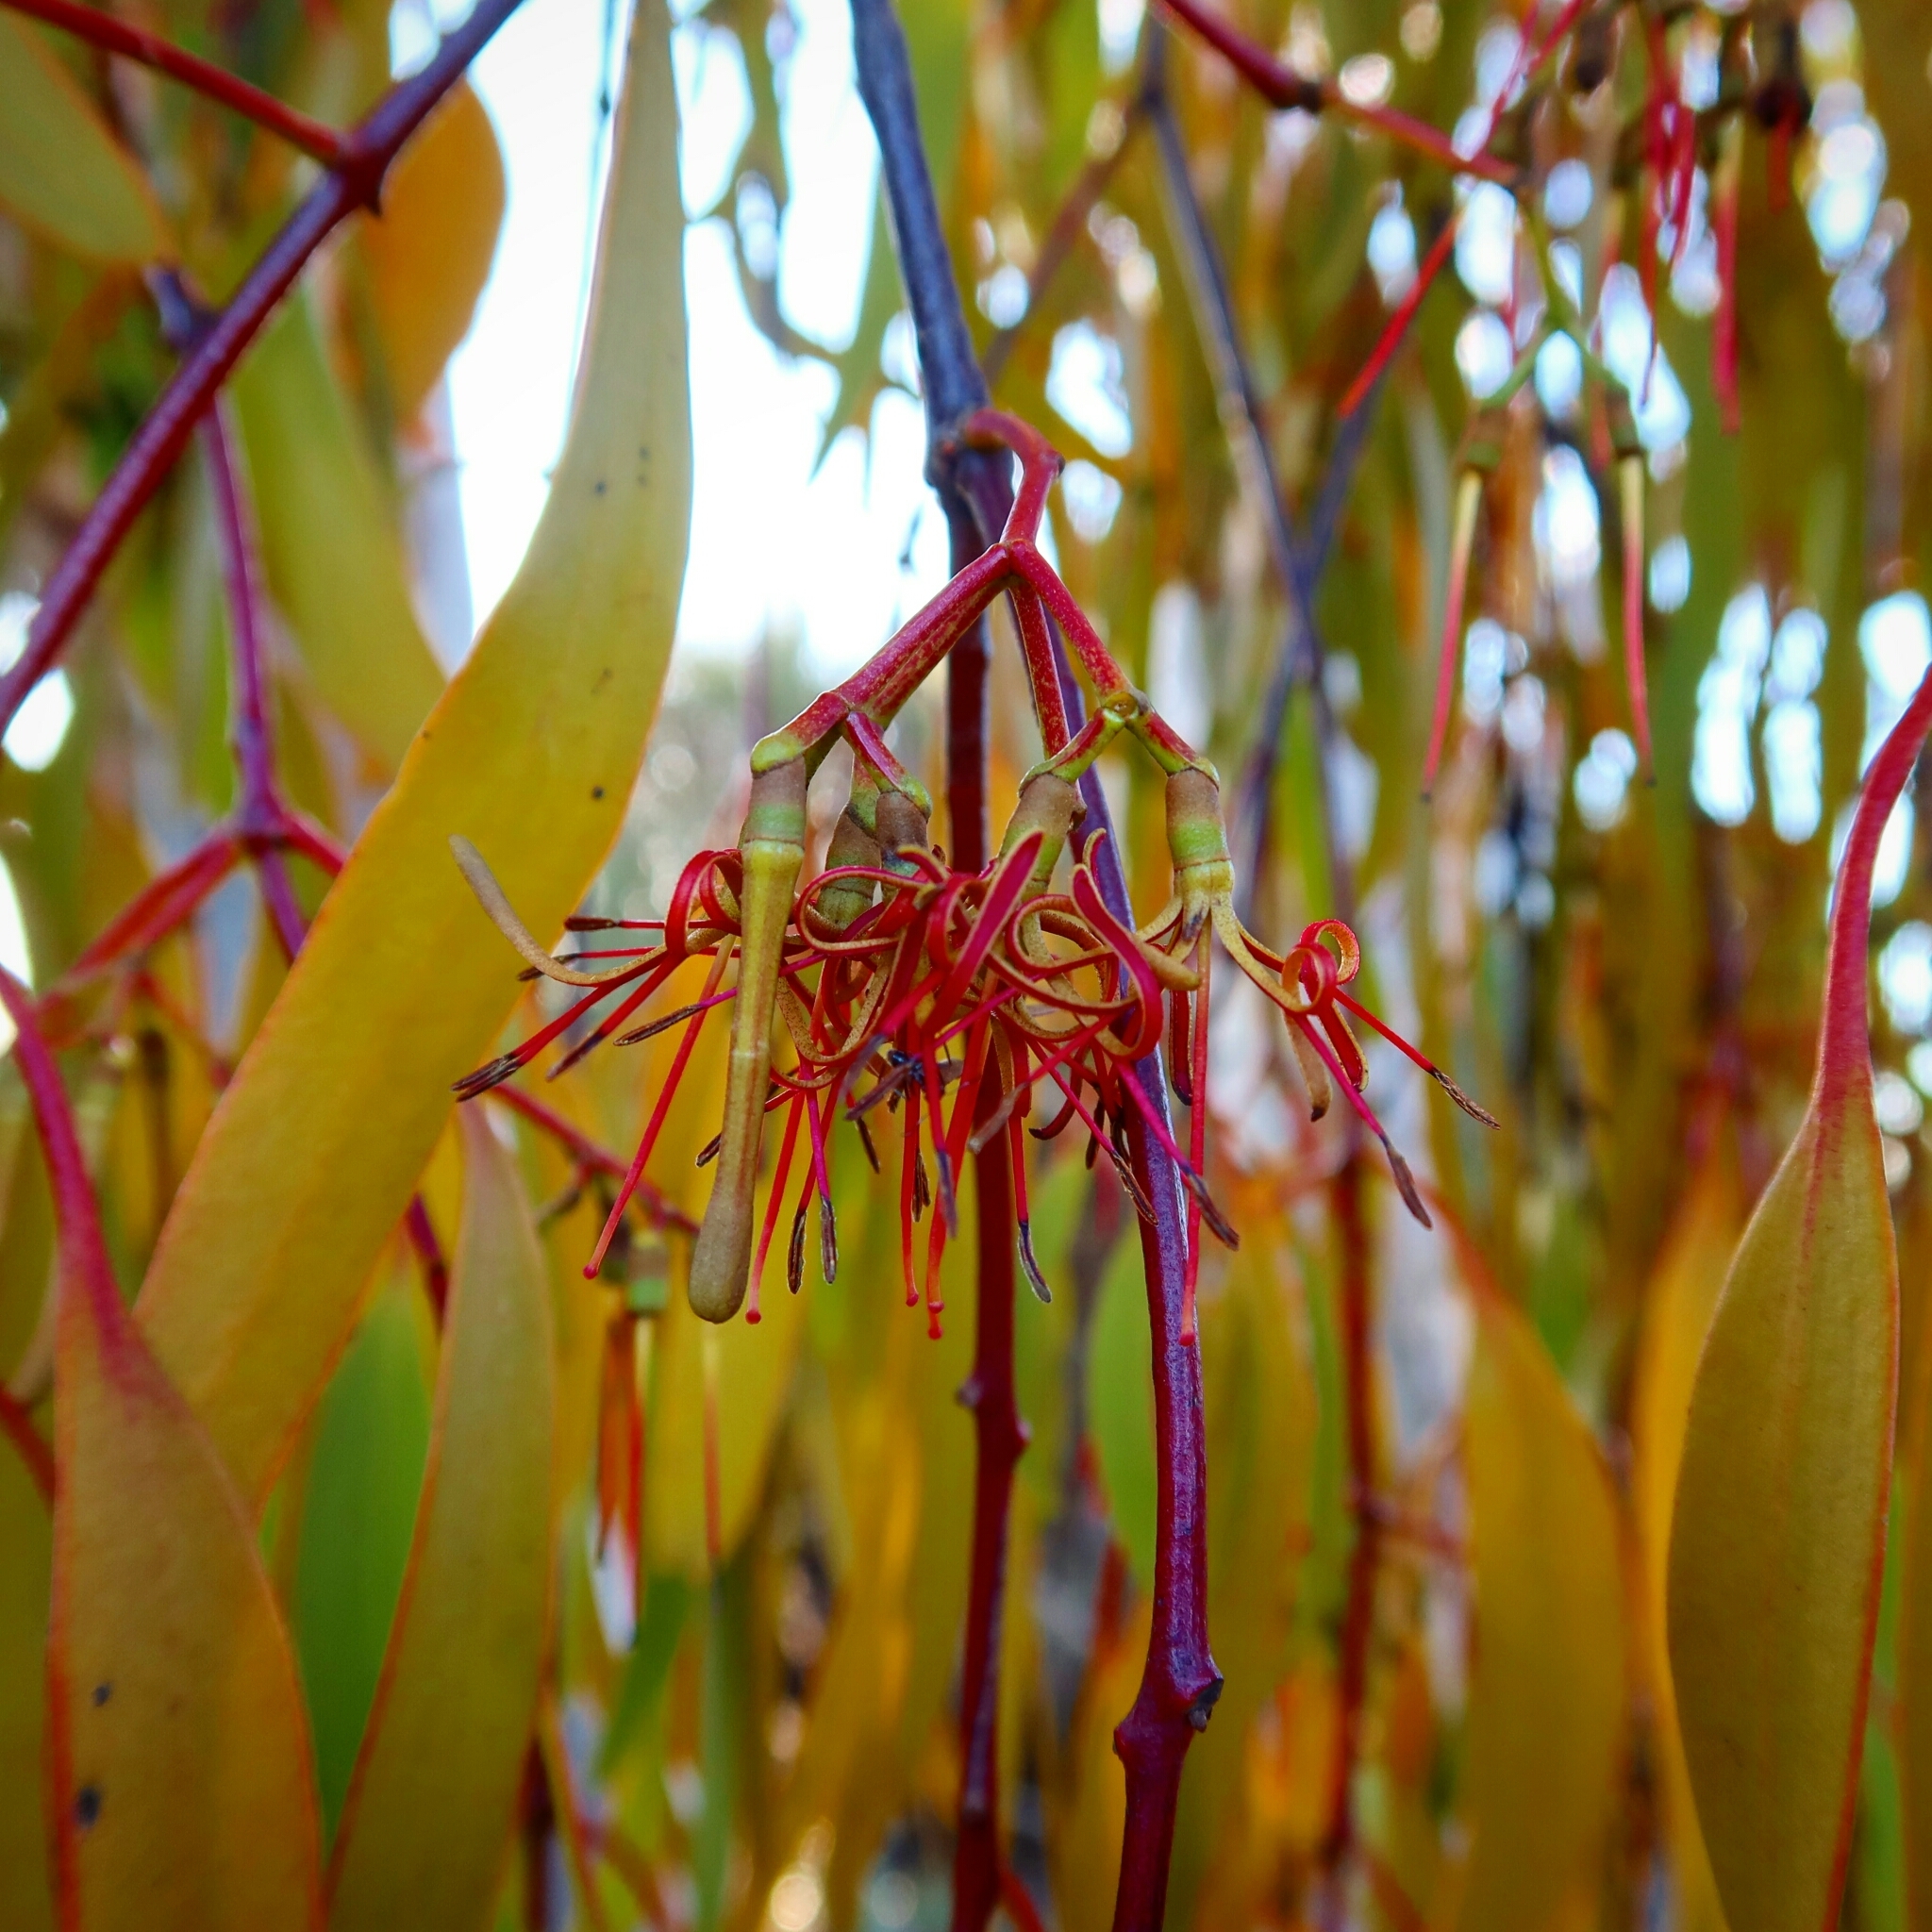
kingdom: Plantae
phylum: Tracheophyta
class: Magnoliopsida
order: Santalales
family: Loranthaceae
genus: Amyema
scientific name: Amyema miquelii
